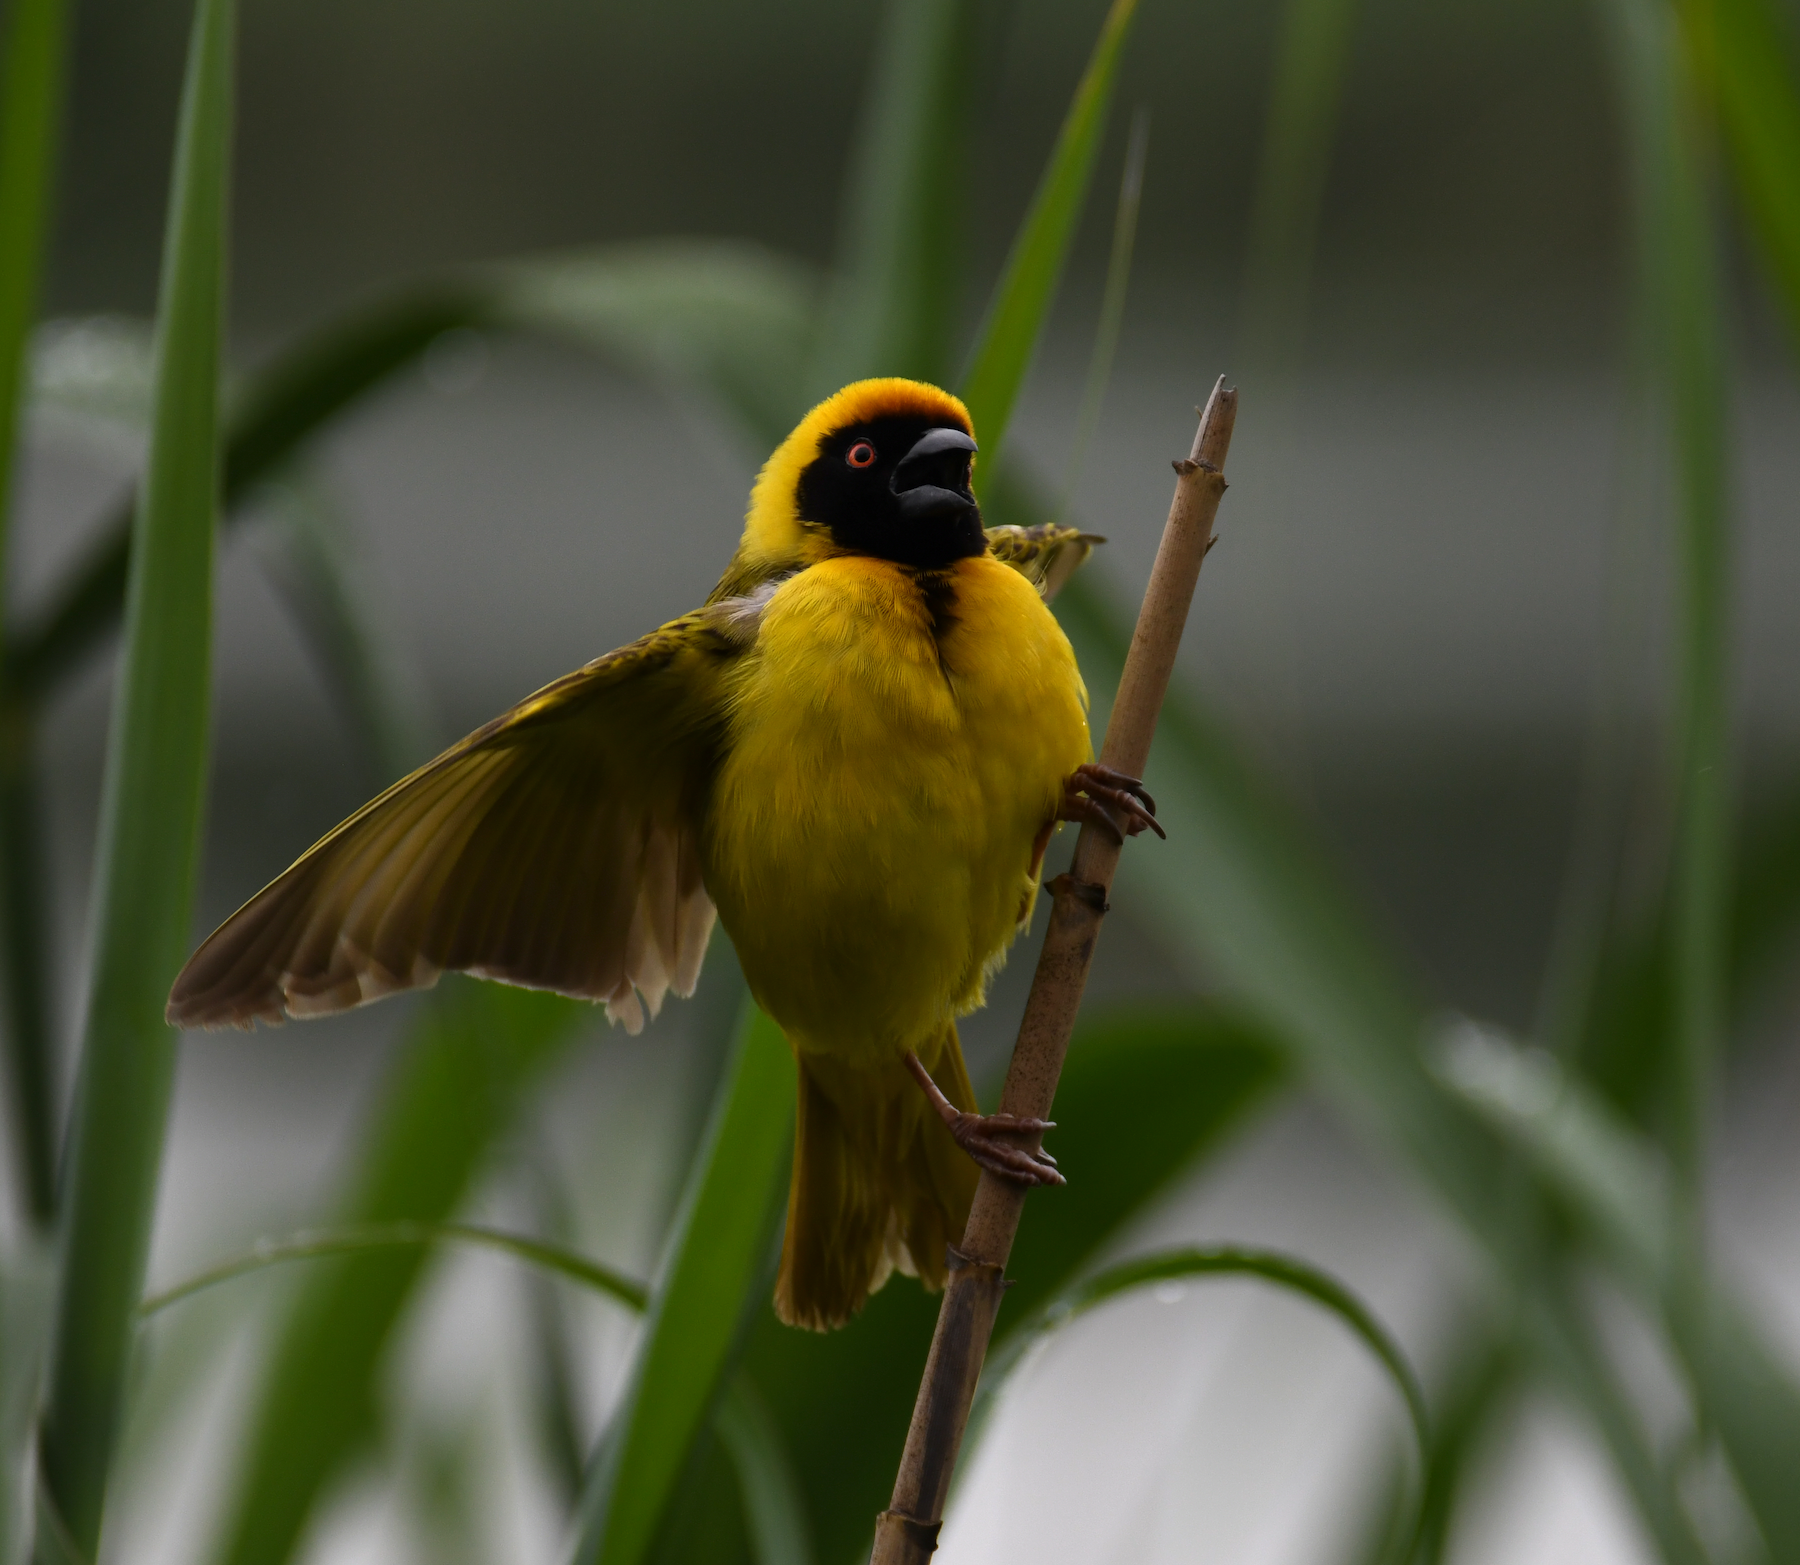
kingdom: Animalia
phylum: Chordata
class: Aves
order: Passeriformes
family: Ploceidae
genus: Ploceus
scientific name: Ploceus velatus
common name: Southern masked weaver
